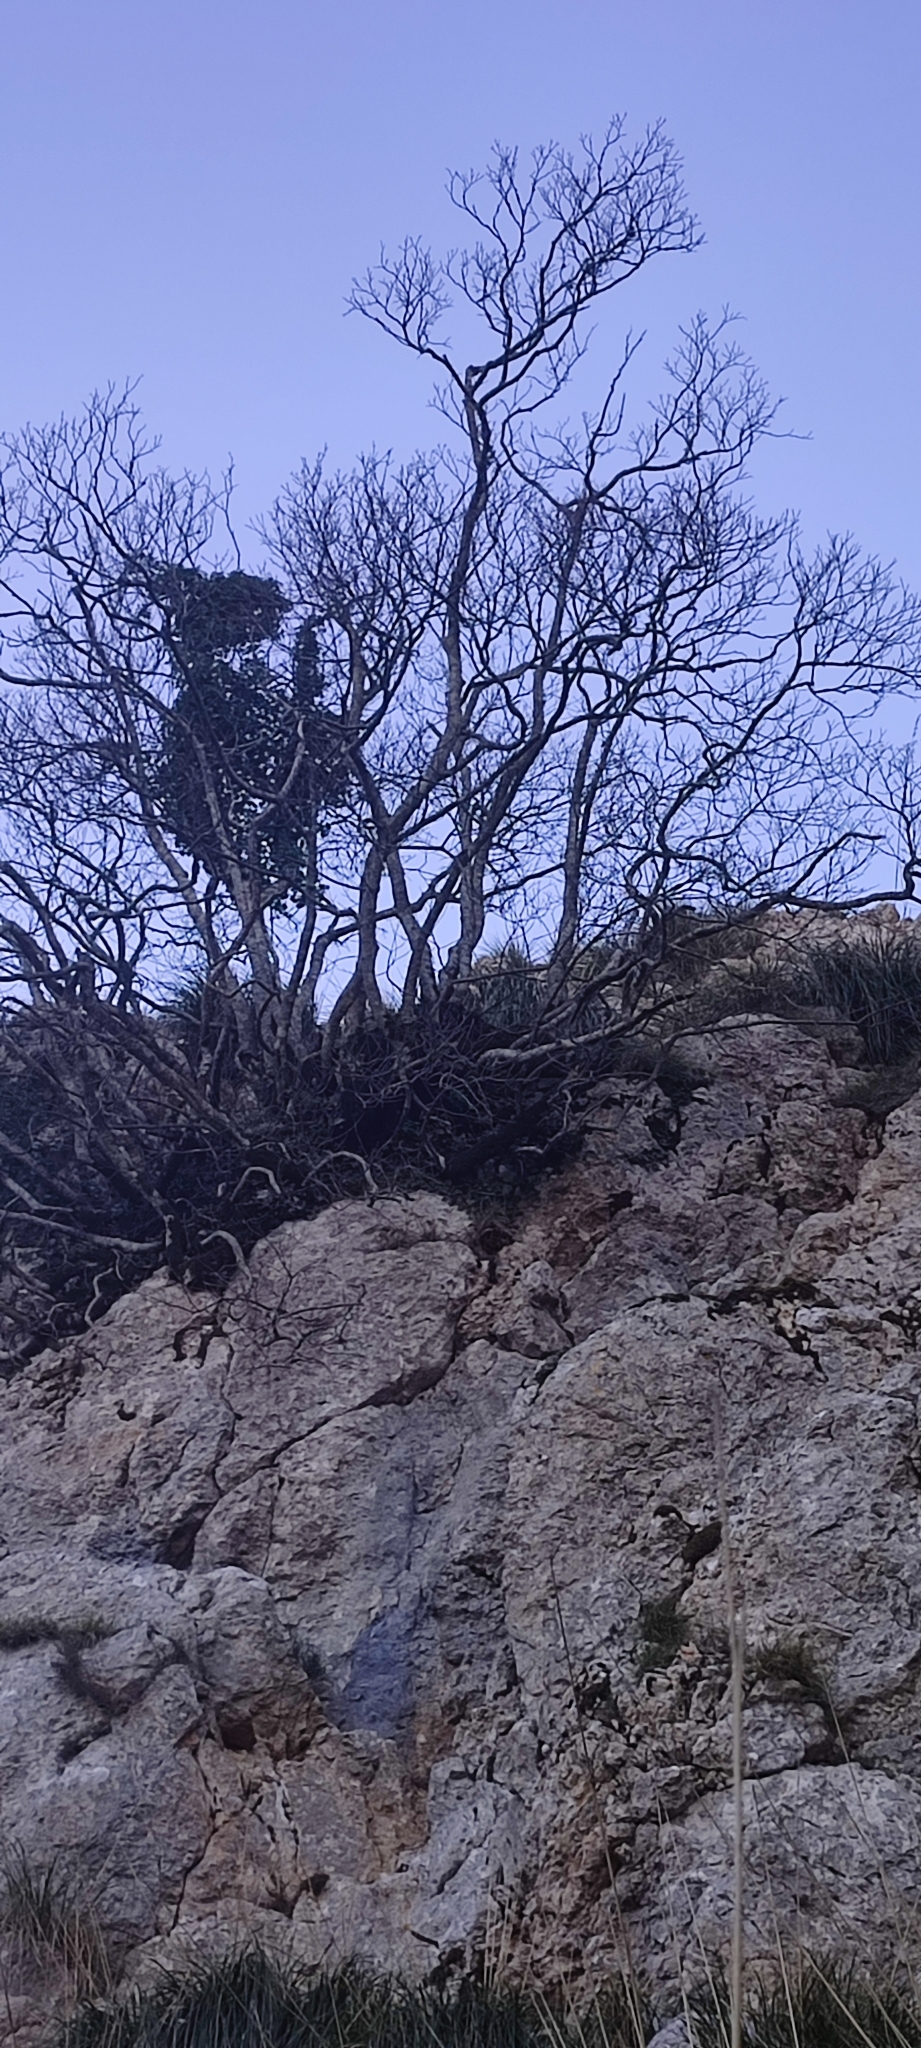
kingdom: Plantae
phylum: Tracheophyta
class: Magnoliopsida
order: Sapindales
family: Sapindaceae
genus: Acer
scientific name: Acer granatense
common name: Spanish maple
